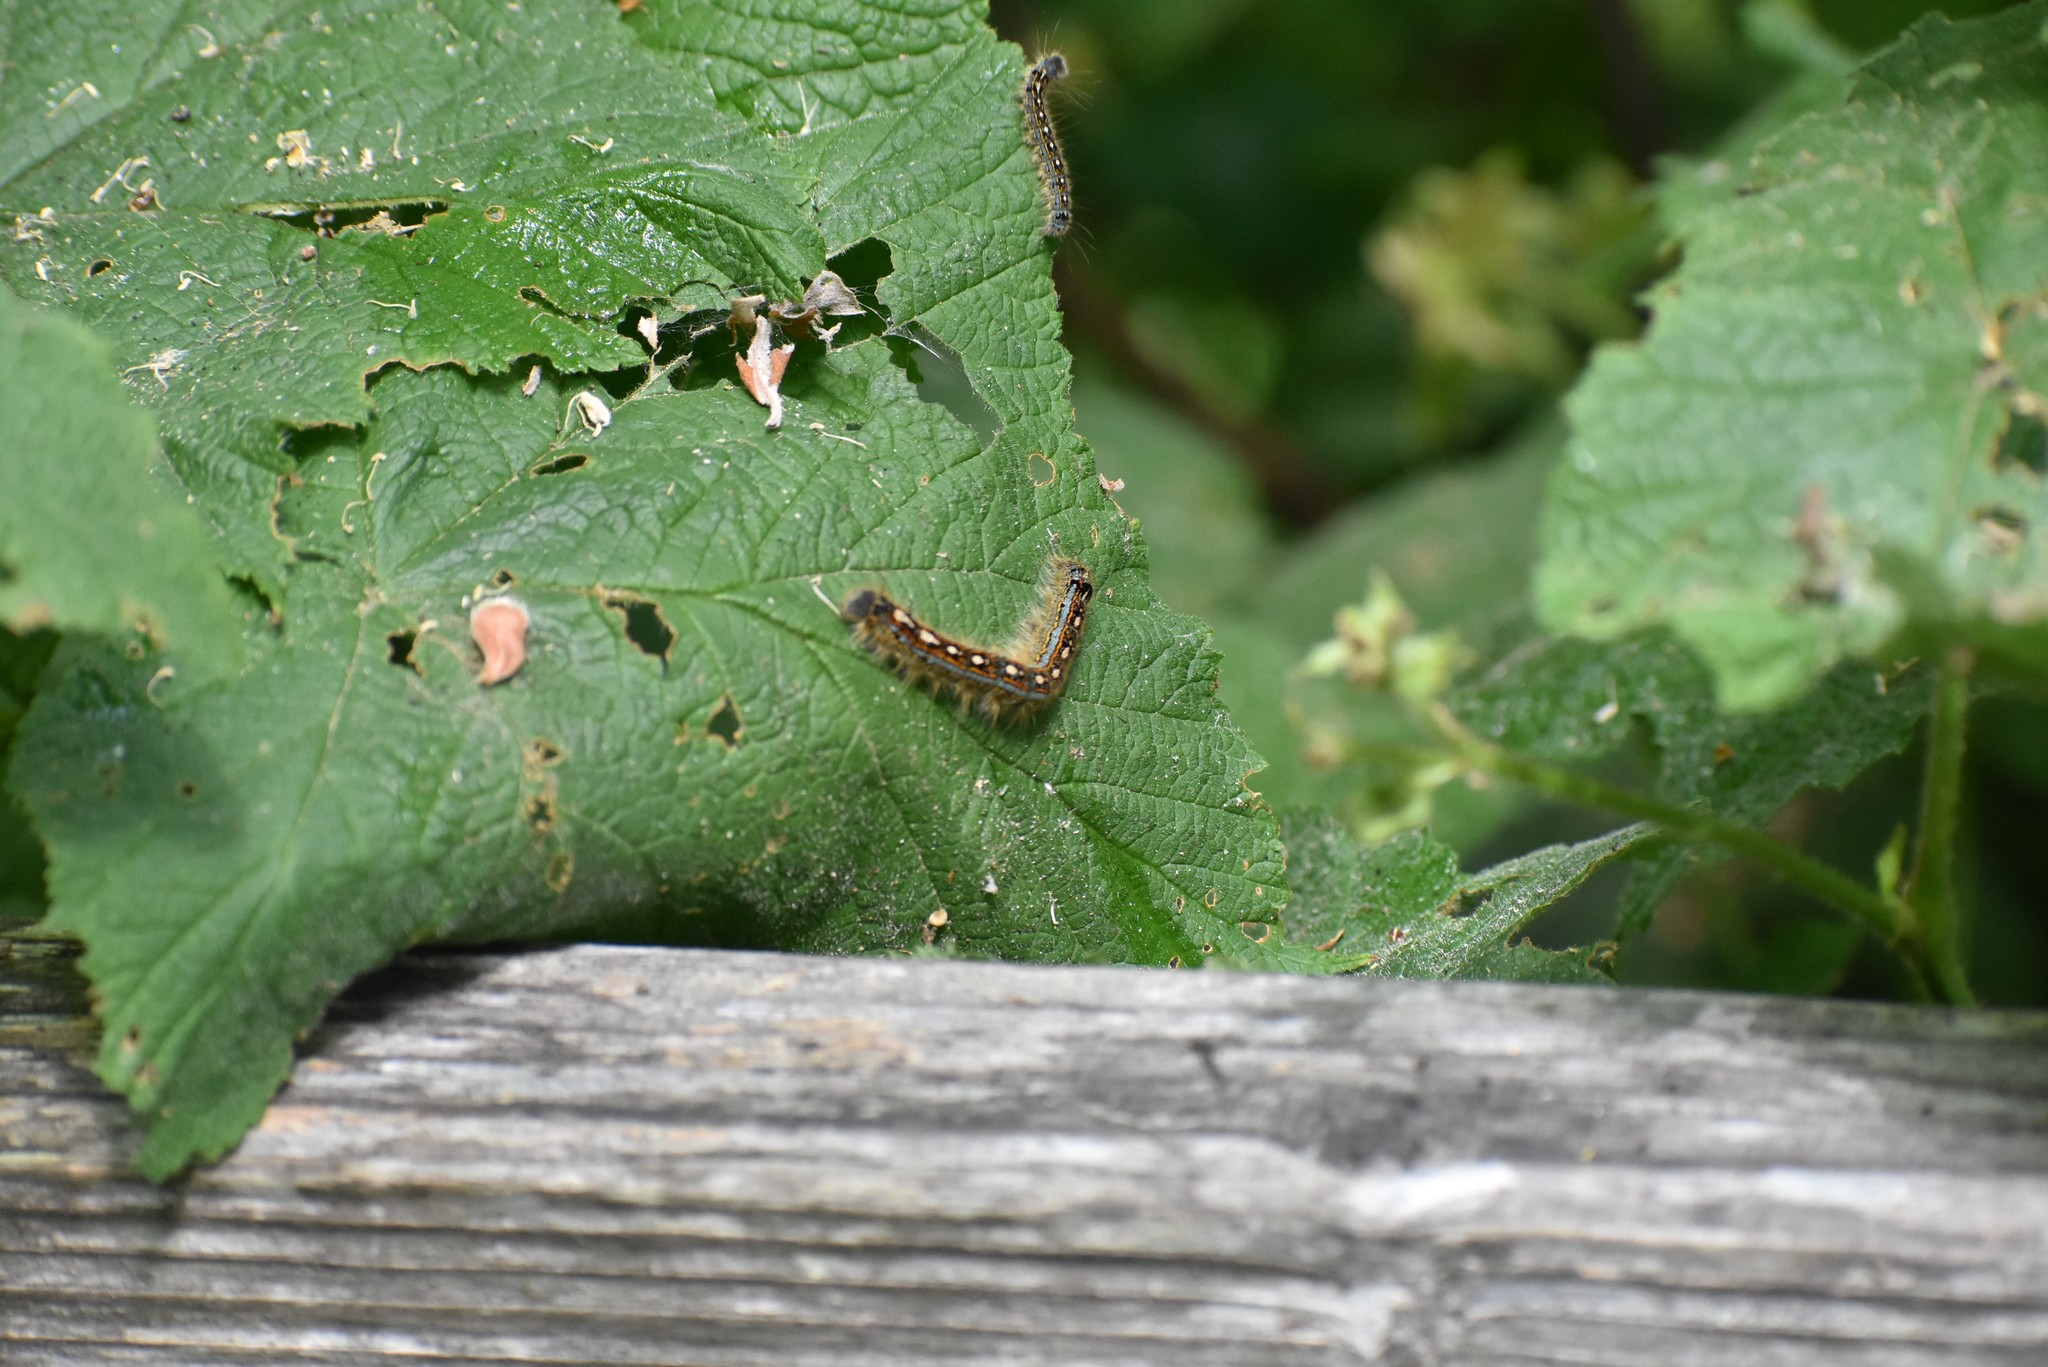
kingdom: Animalia
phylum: Arthropoda
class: Insecta
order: Lepidoptera
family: Lasiocampidae
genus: Malacosoma
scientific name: Malacosoma disstria
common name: Forest tent caterpillar
